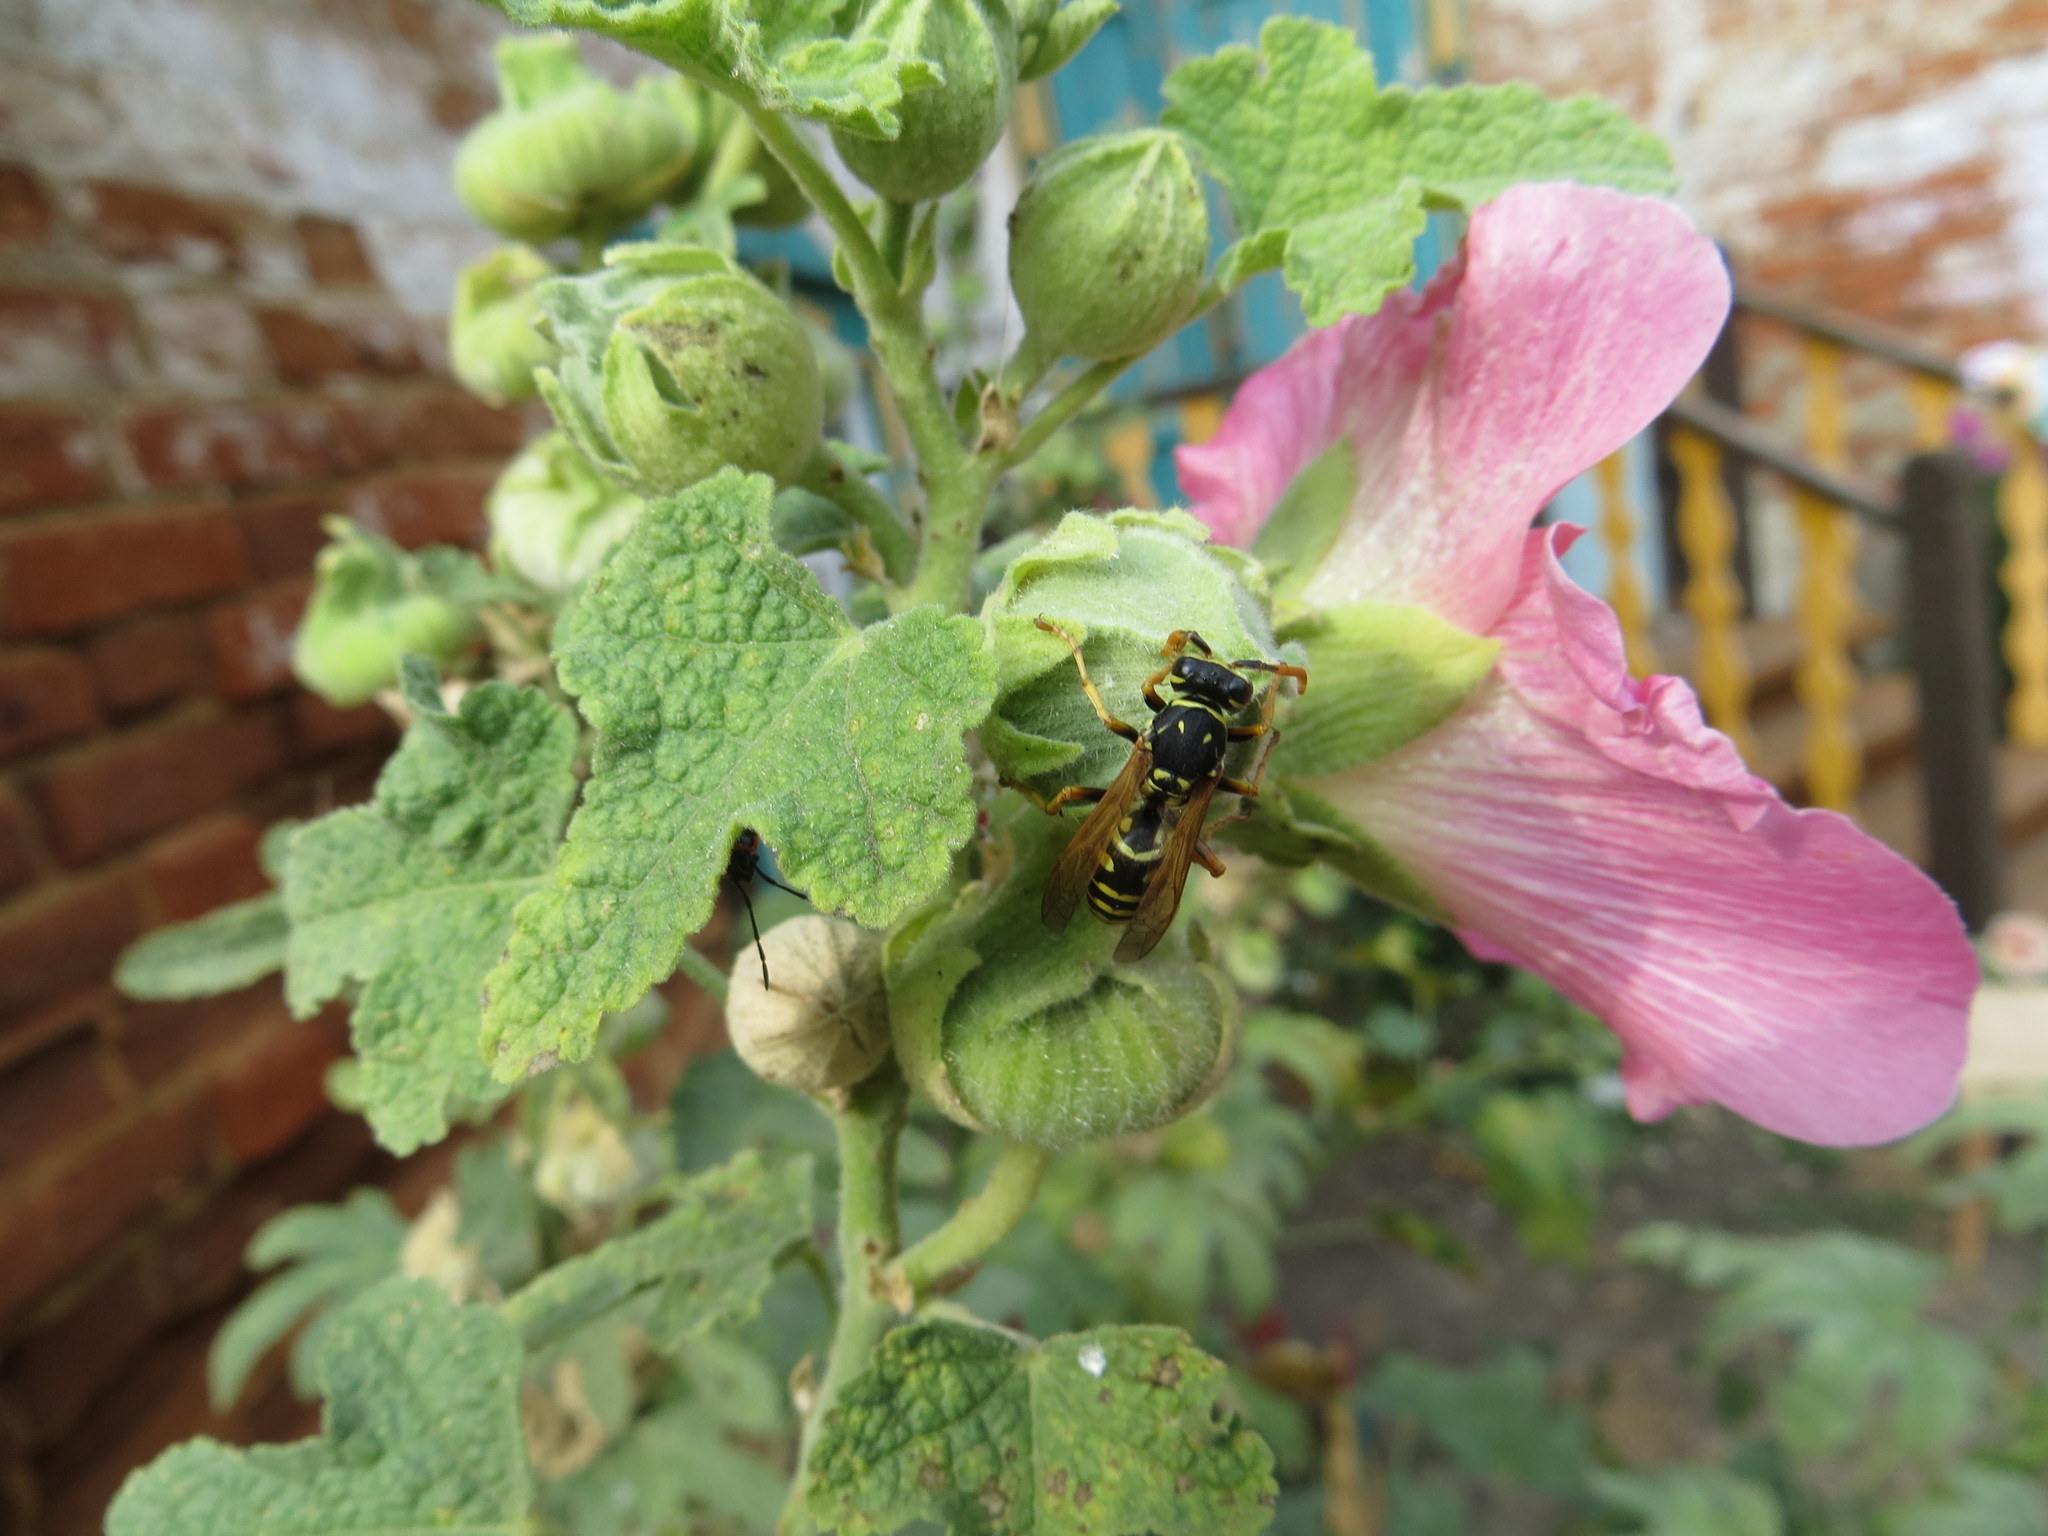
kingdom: Animalia
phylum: Arthropoda
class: Insecta
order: Hymenoptera
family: Eumenidae
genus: Polistes
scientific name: Polistes dominula
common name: Paper wasp
